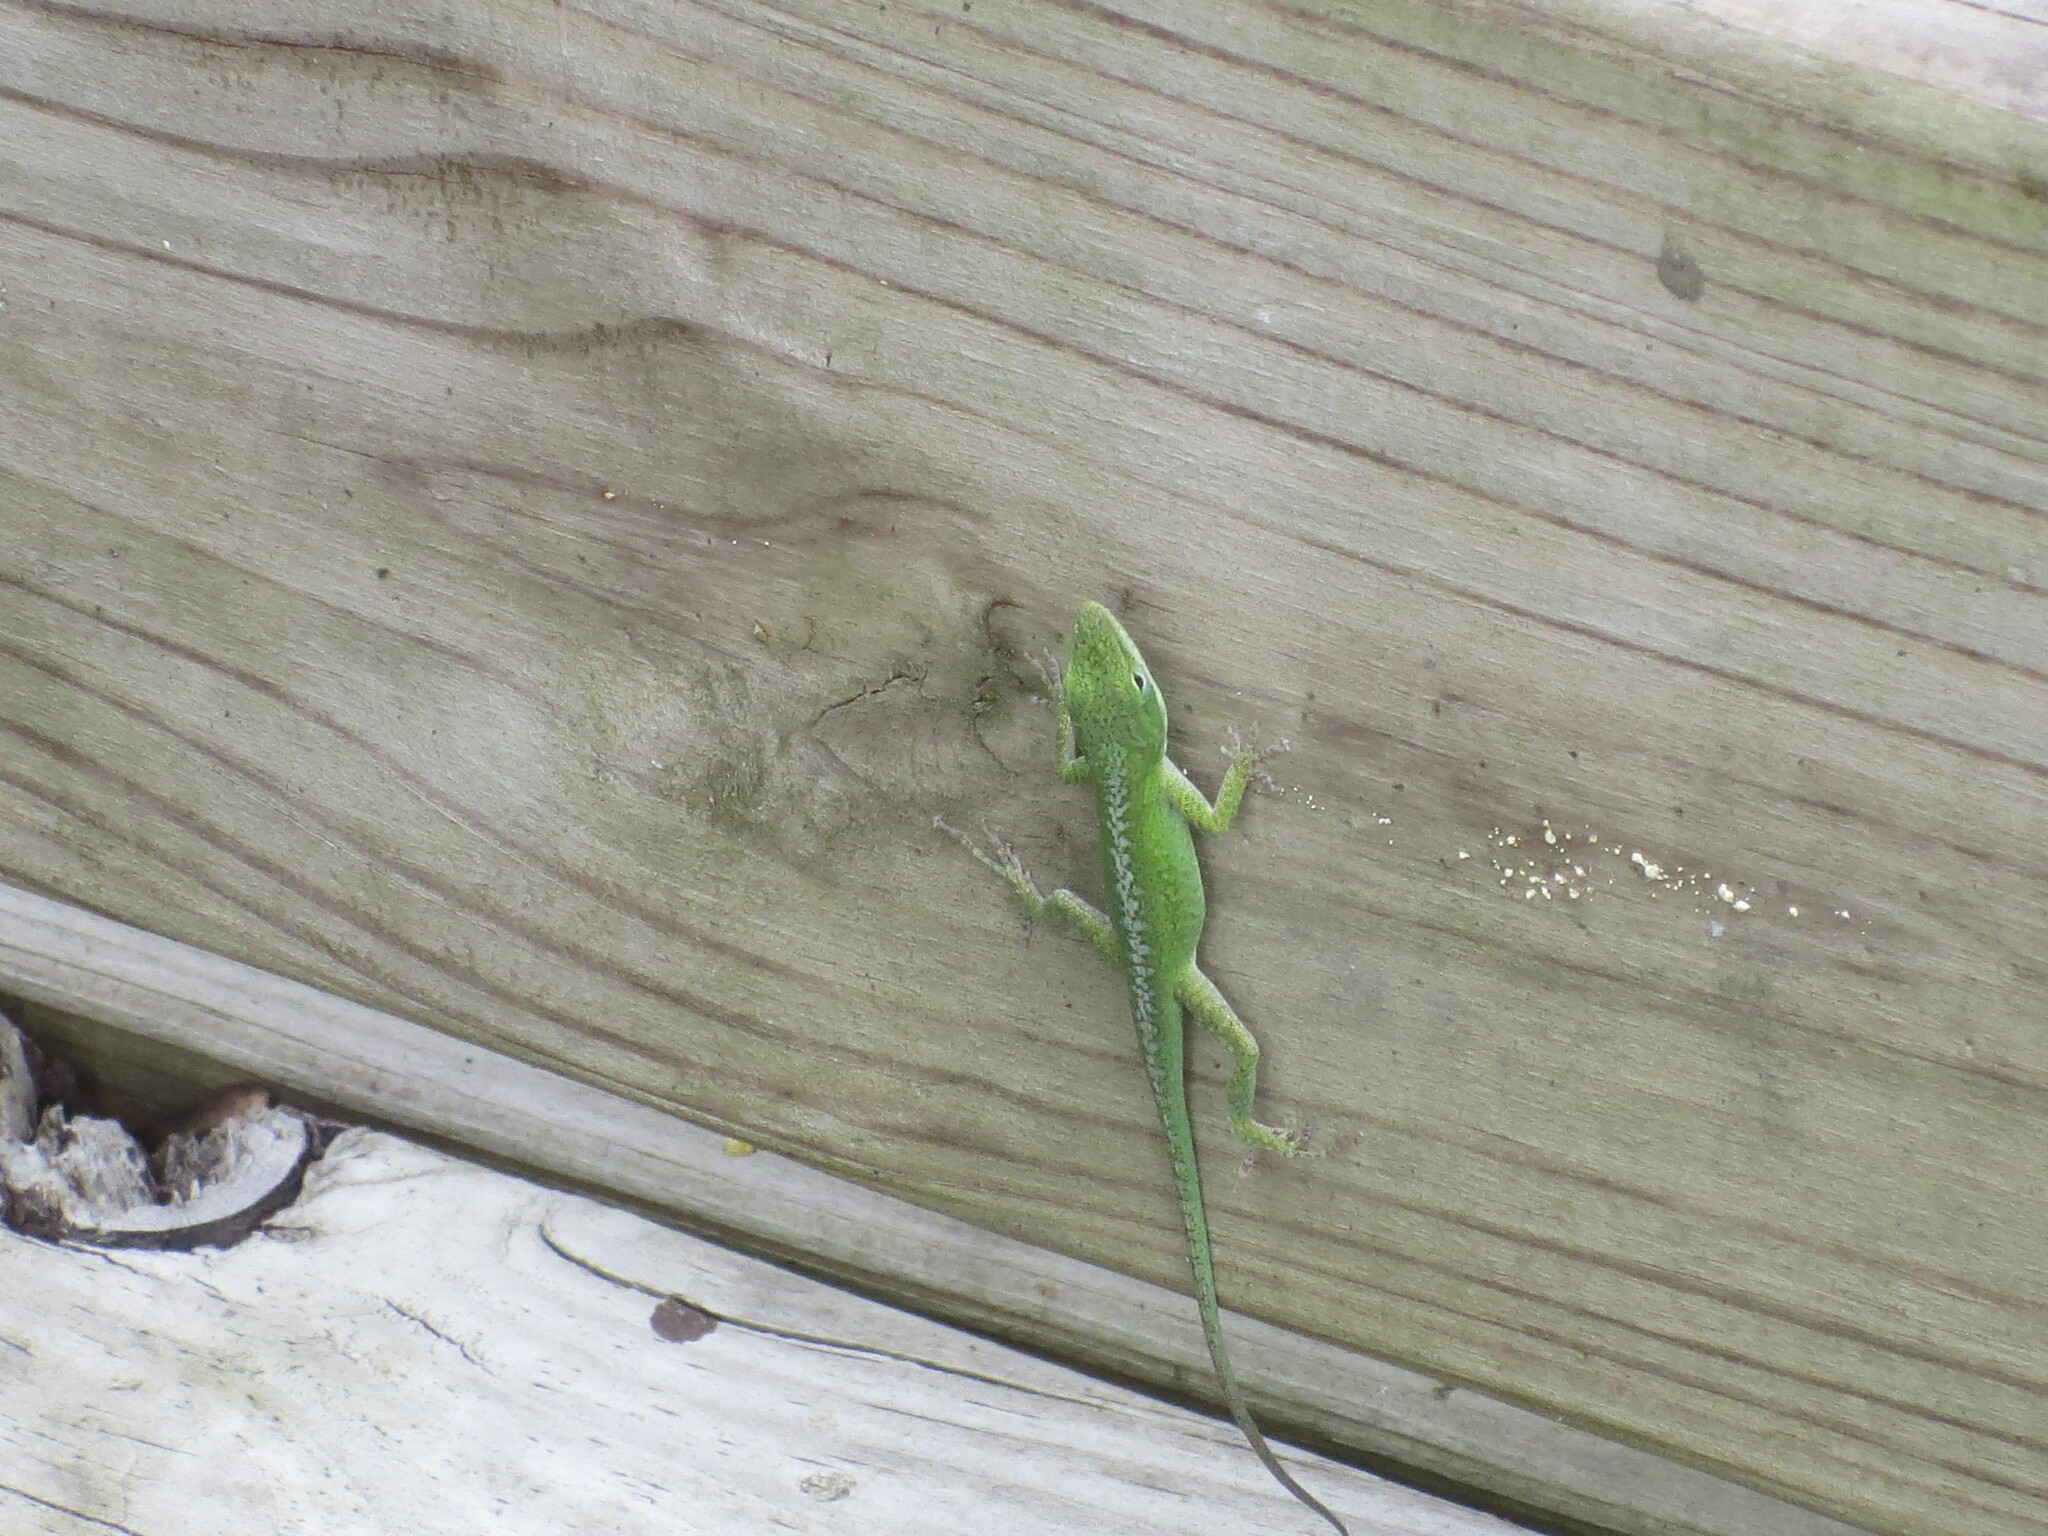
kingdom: Animalia
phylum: Chordata
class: Squamata
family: Dactyloidae
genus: Anolis
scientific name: Anolis carolinensis
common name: Green anole
